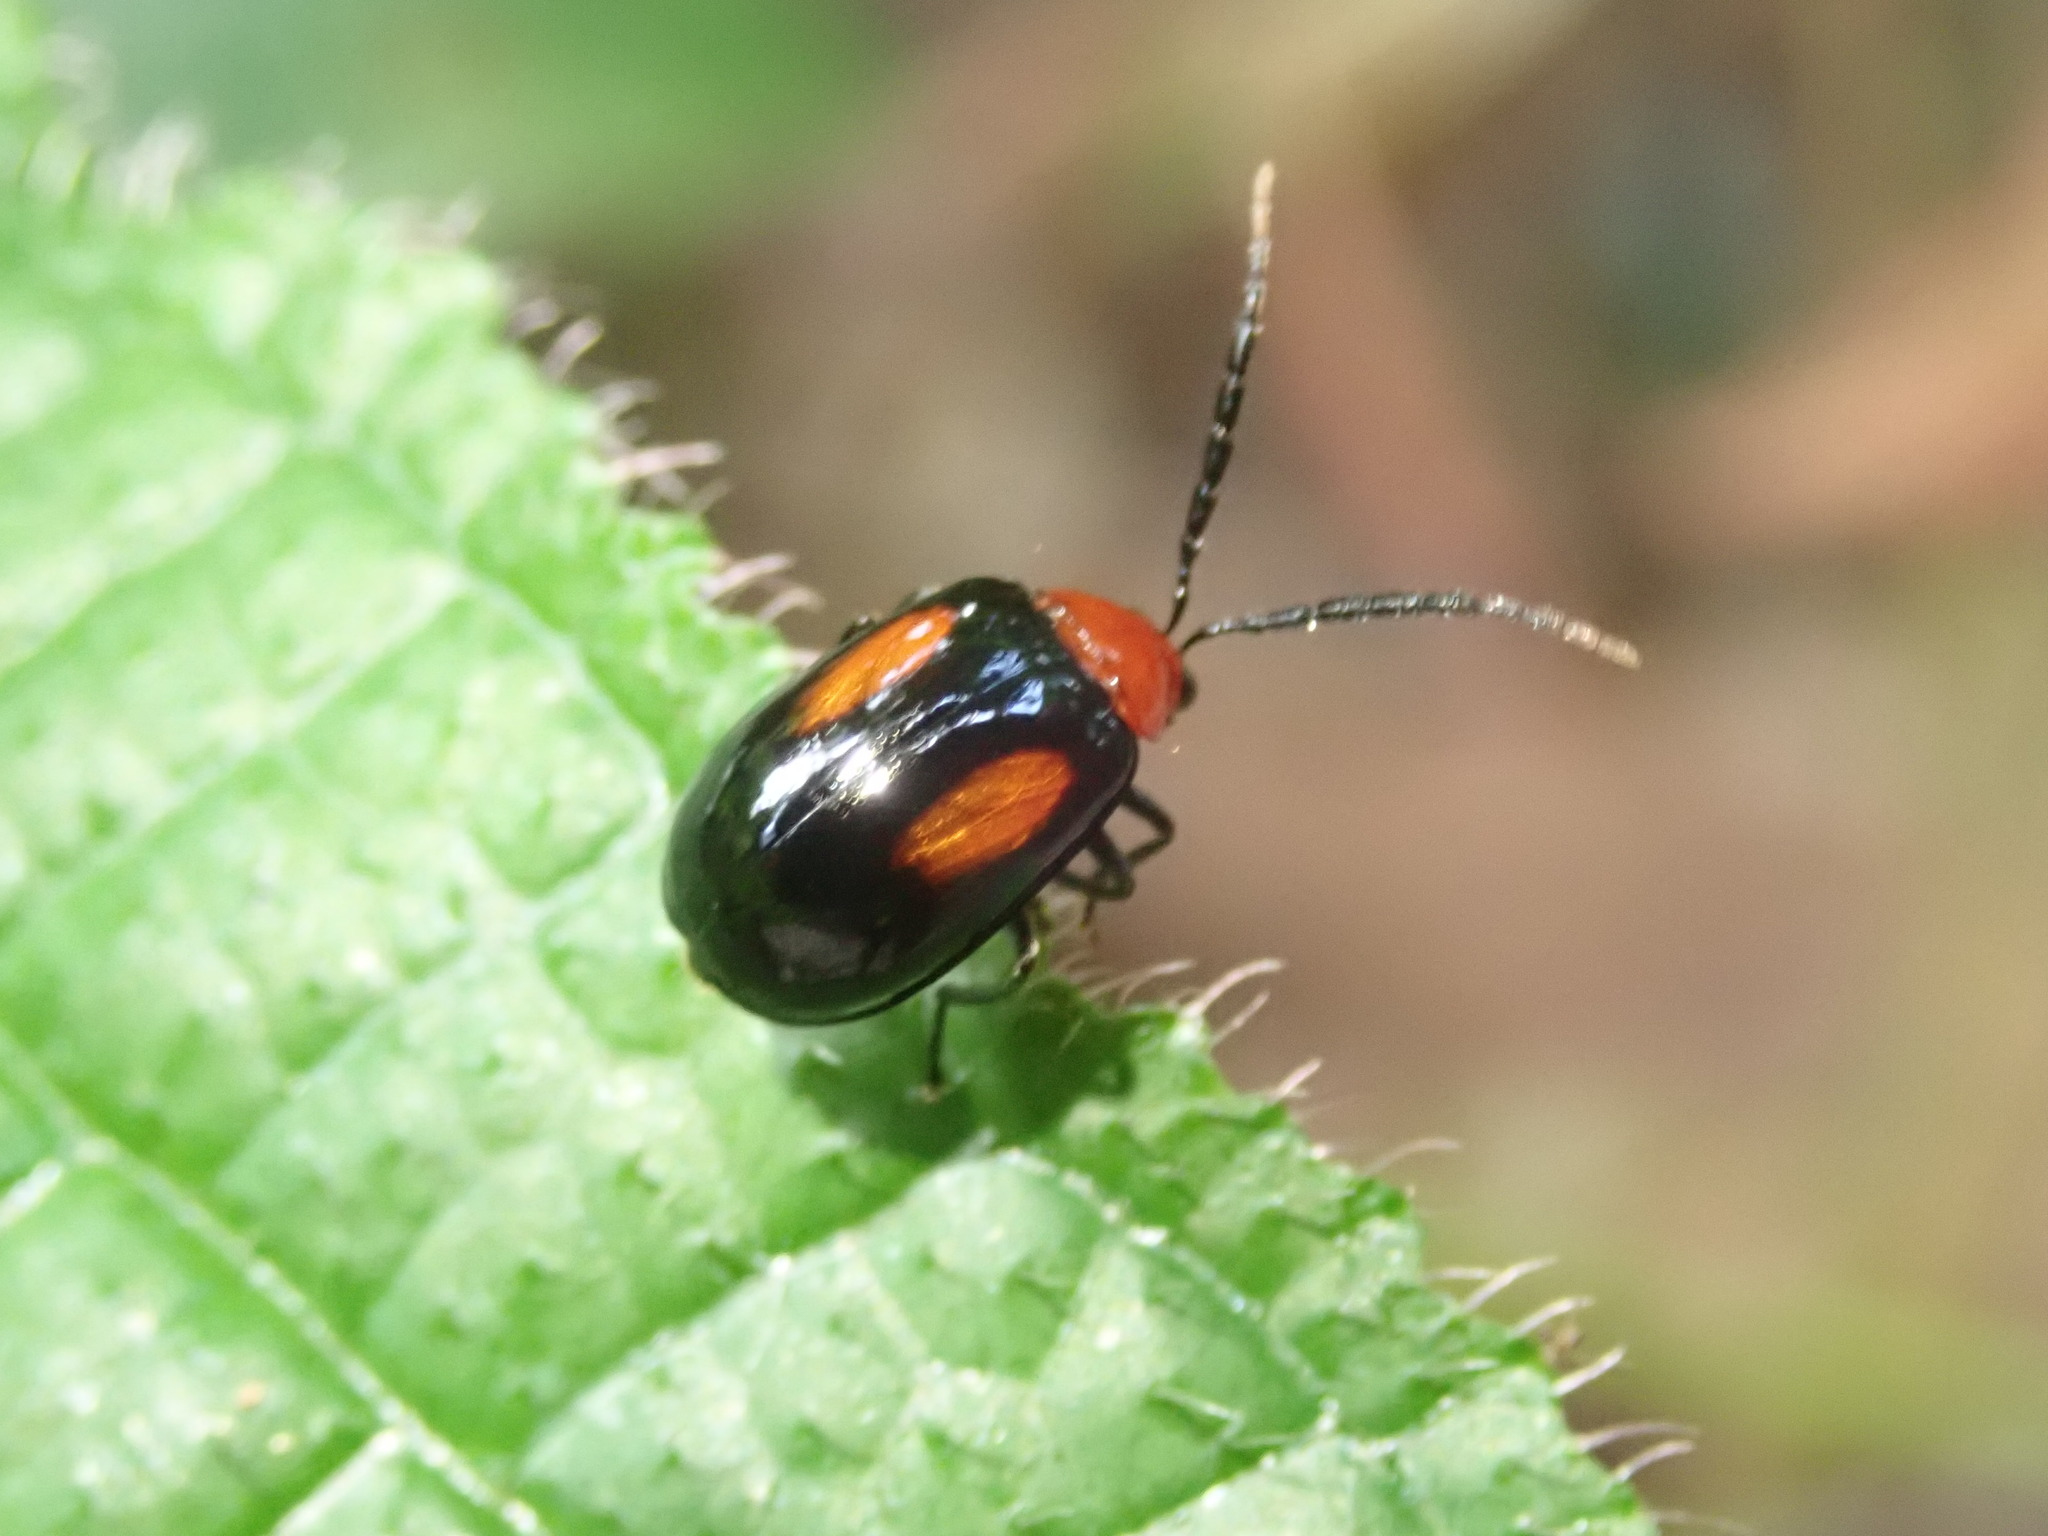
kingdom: Animalia
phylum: Arthropoda
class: Insecta
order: Coleoptera
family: Chrysomelidae
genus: Arcastes
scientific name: Arcastes biplagiata
